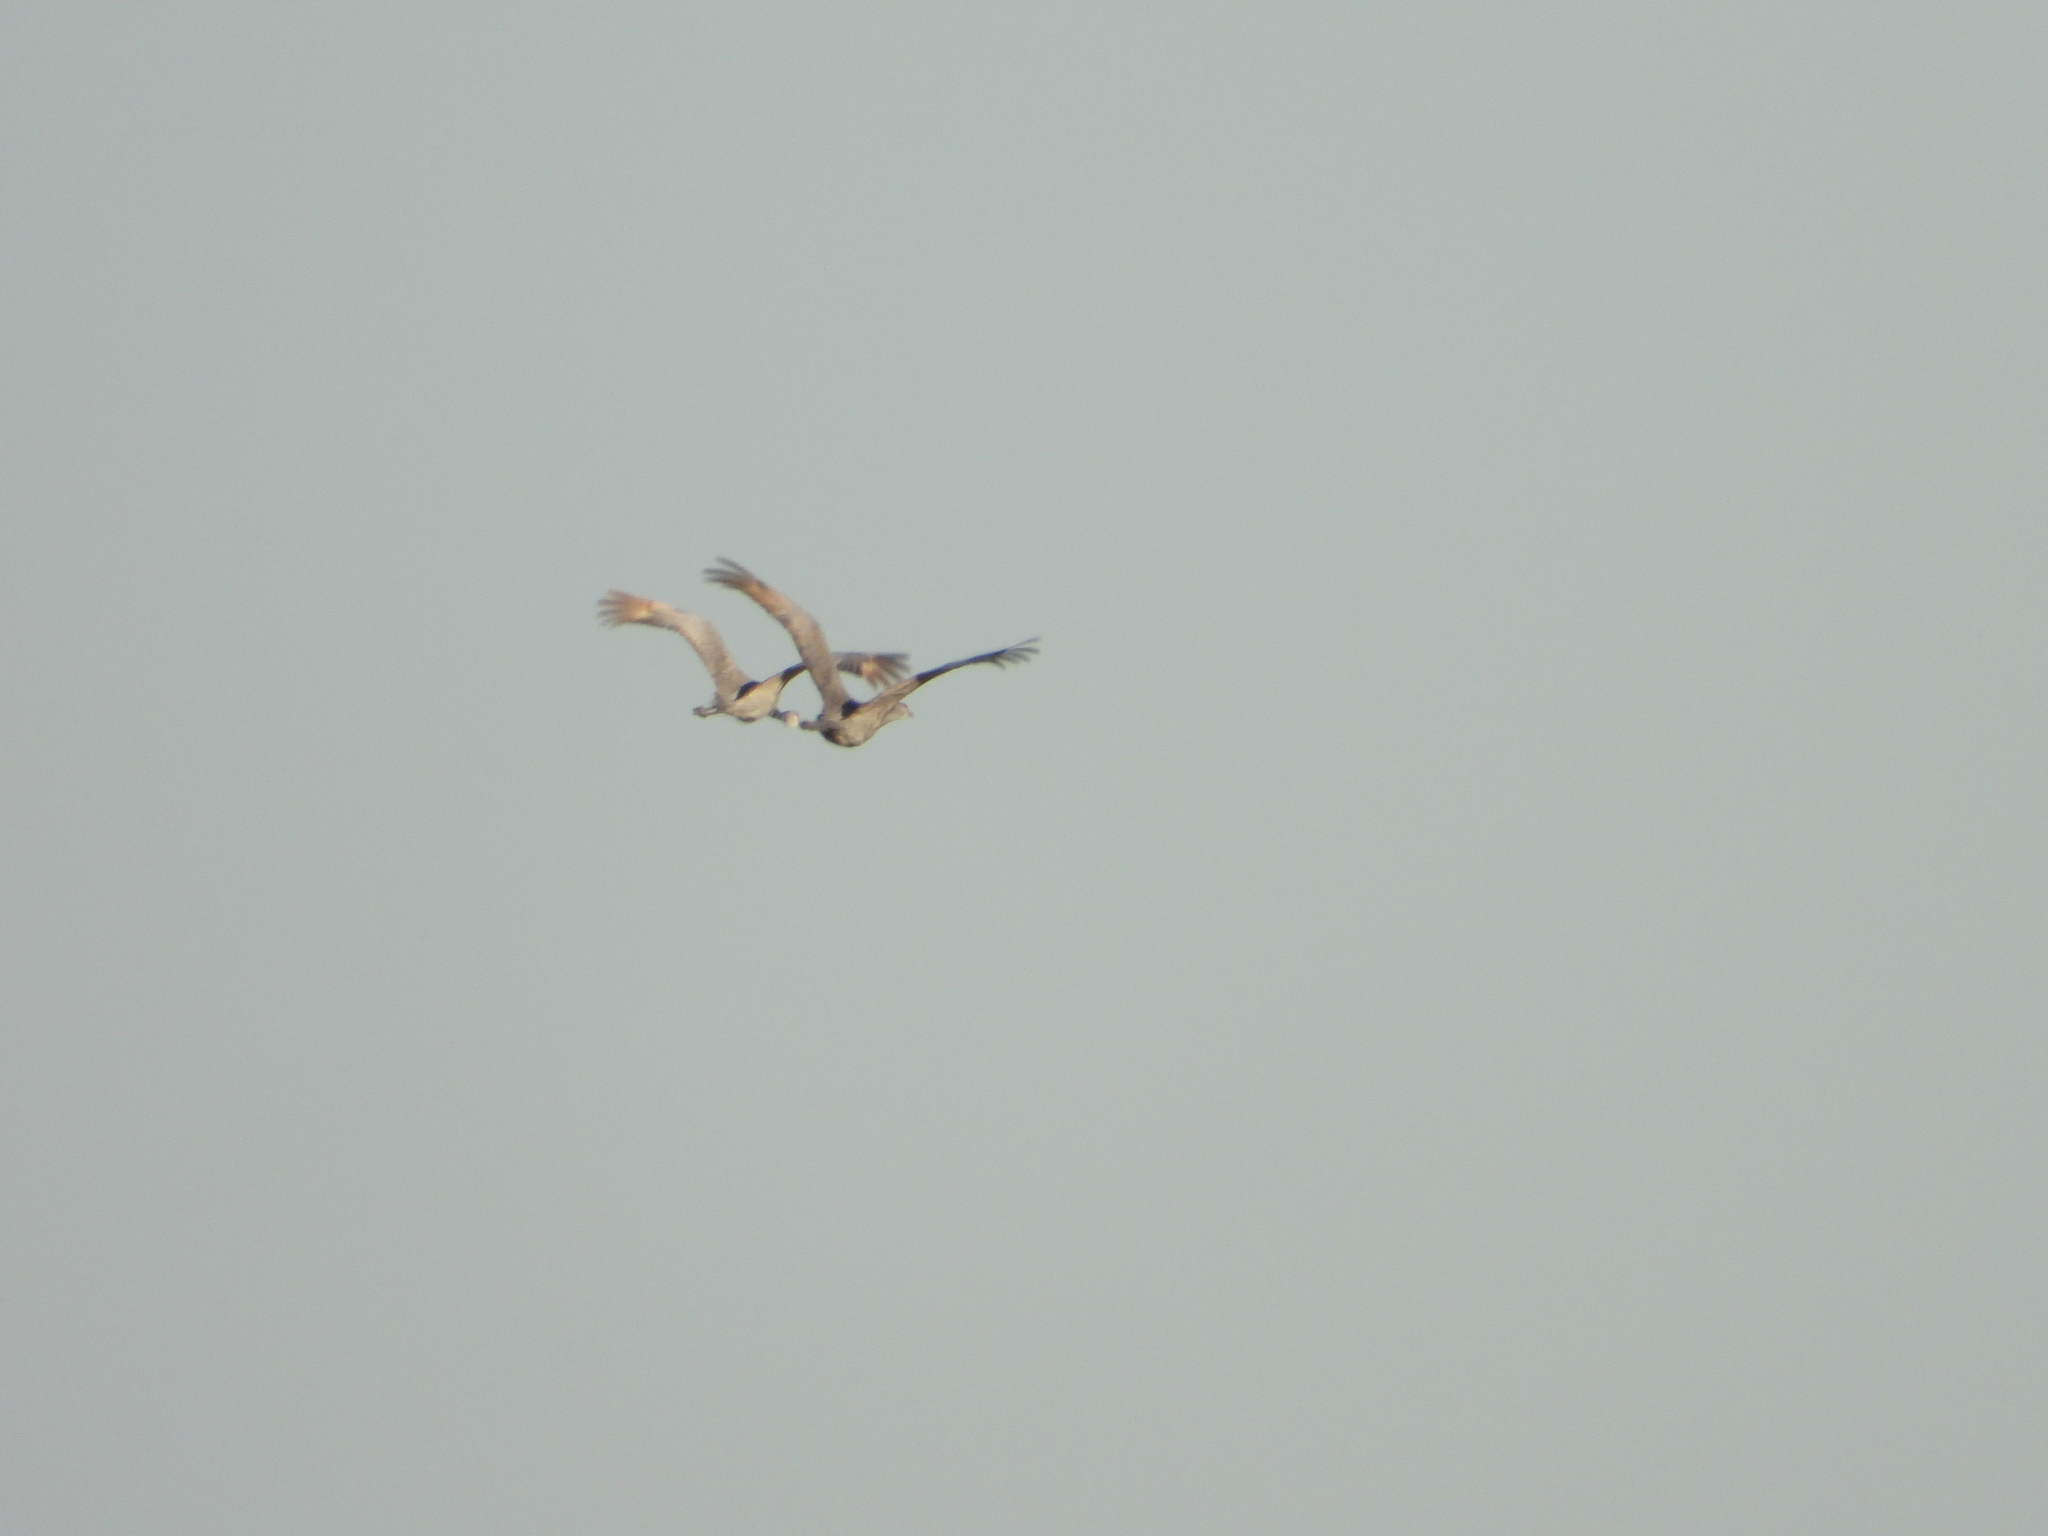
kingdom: Animalia
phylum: Chordata
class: Aves
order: Gruiformes
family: Gruidae
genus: Grus
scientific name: Grus canadensis
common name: Sandhill crane
